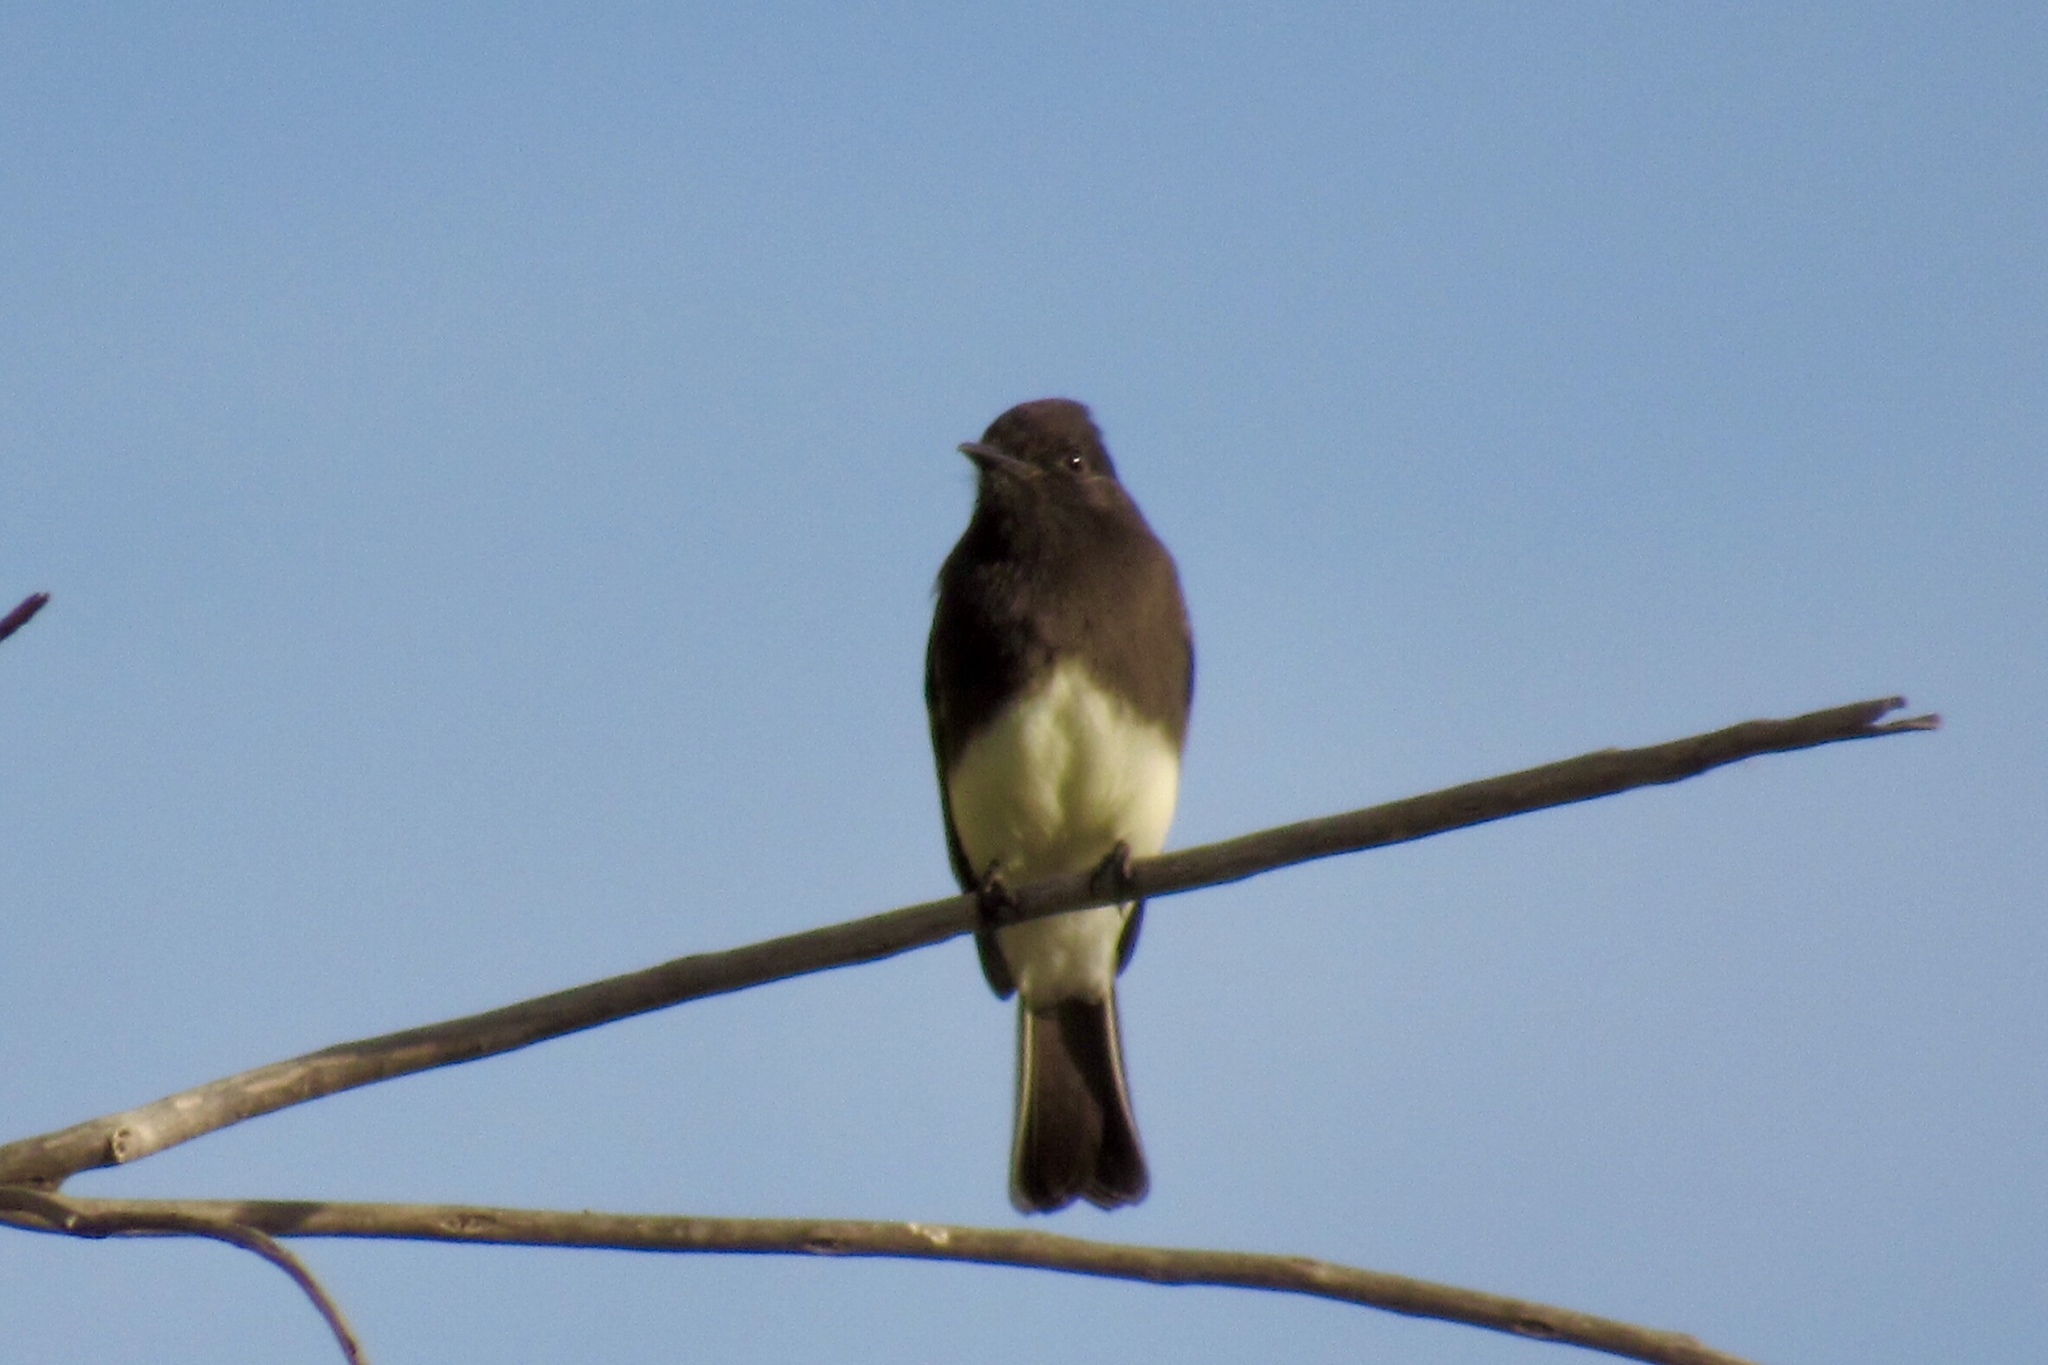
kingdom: Animalia
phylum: Chordata
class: Aves
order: Passeriformes
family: Tyrannidae
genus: Sayornis
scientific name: Sayornis nigricans
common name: Black phoebe
